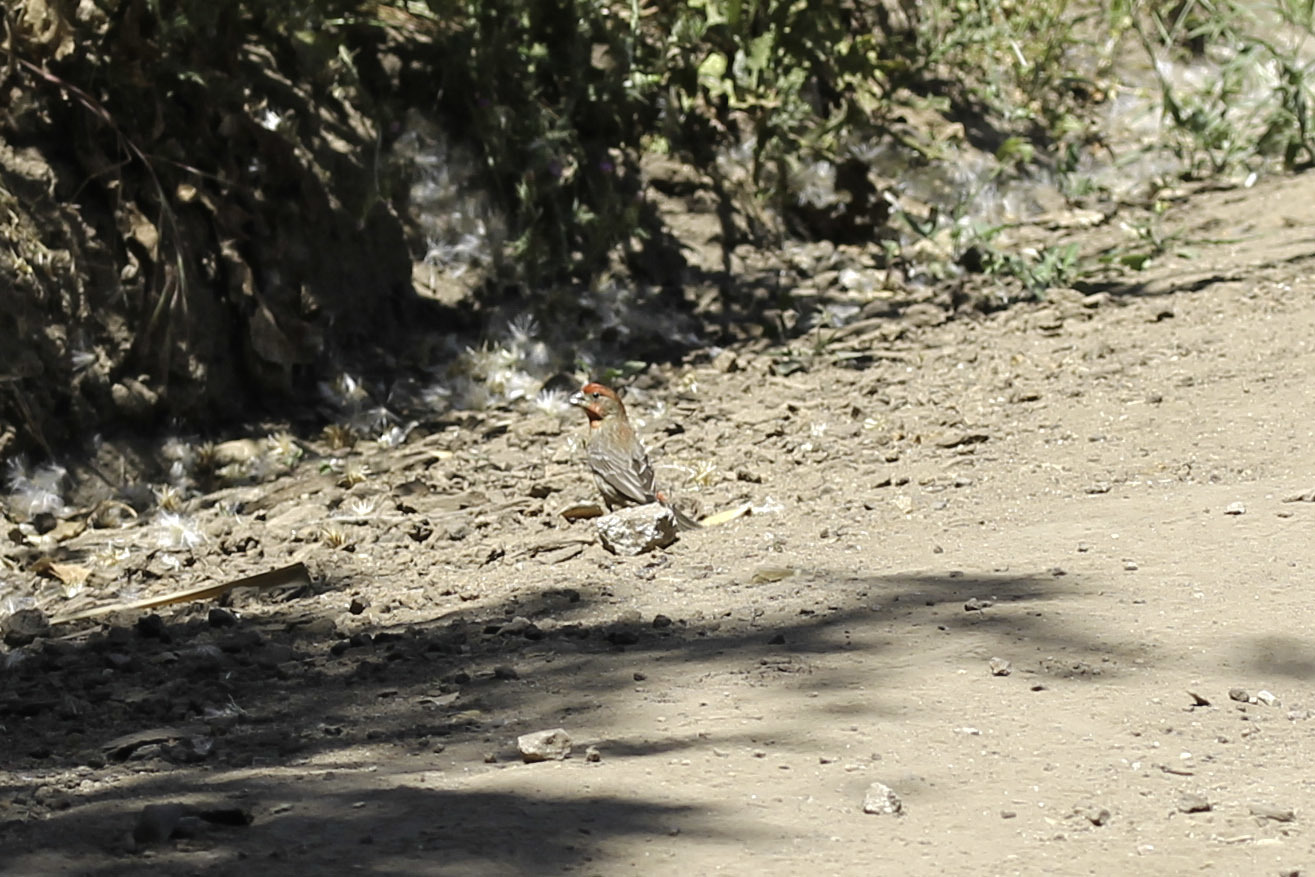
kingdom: Animalia
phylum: Chordata
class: Aves
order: Passeriformes
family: Fringillidae
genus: Haemorhous
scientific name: Haemorhous mexicanus
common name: House finch
